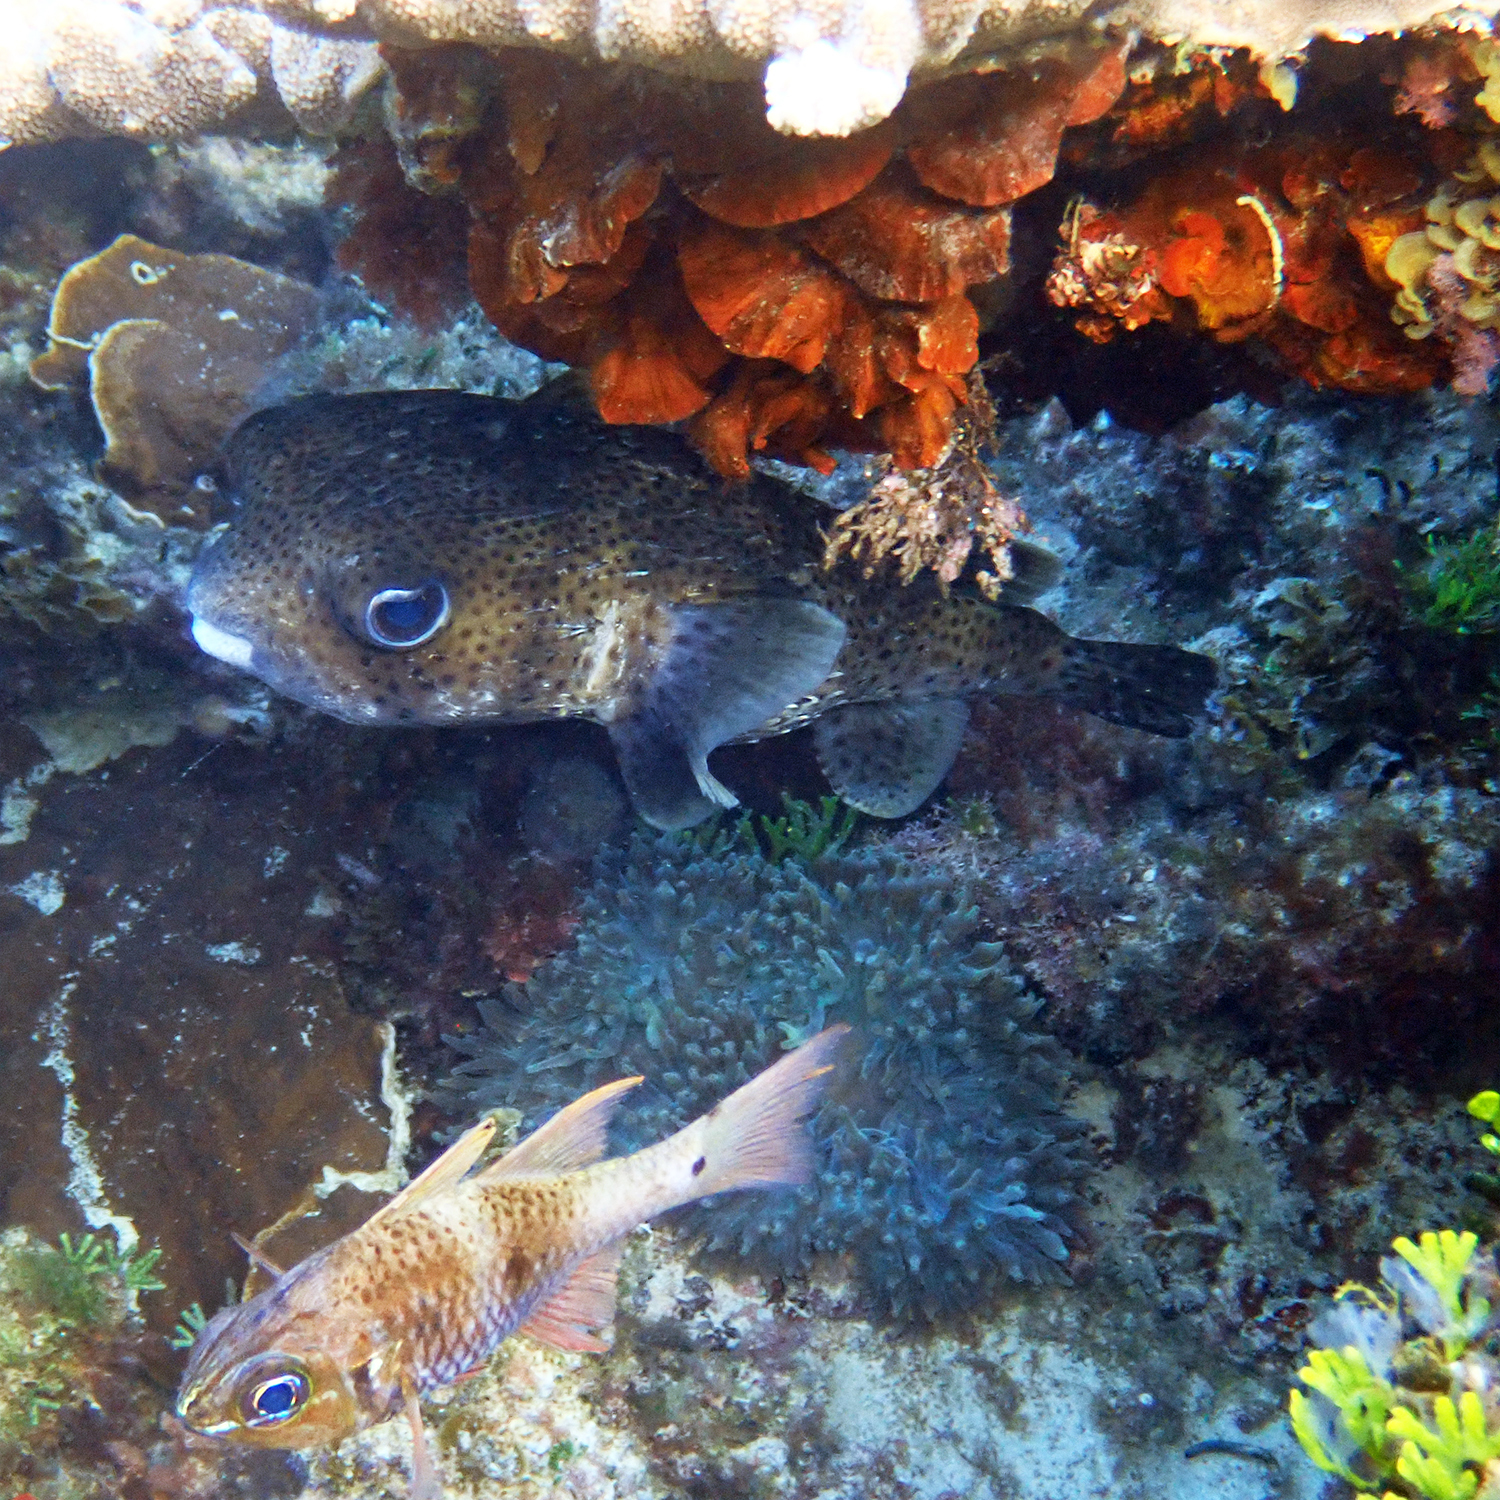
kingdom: Animalia
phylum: Chordata
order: Tetraodontiformes
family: Diodontidae
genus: Diodon
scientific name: Diodon hystrix
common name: Giant porcupinefish
